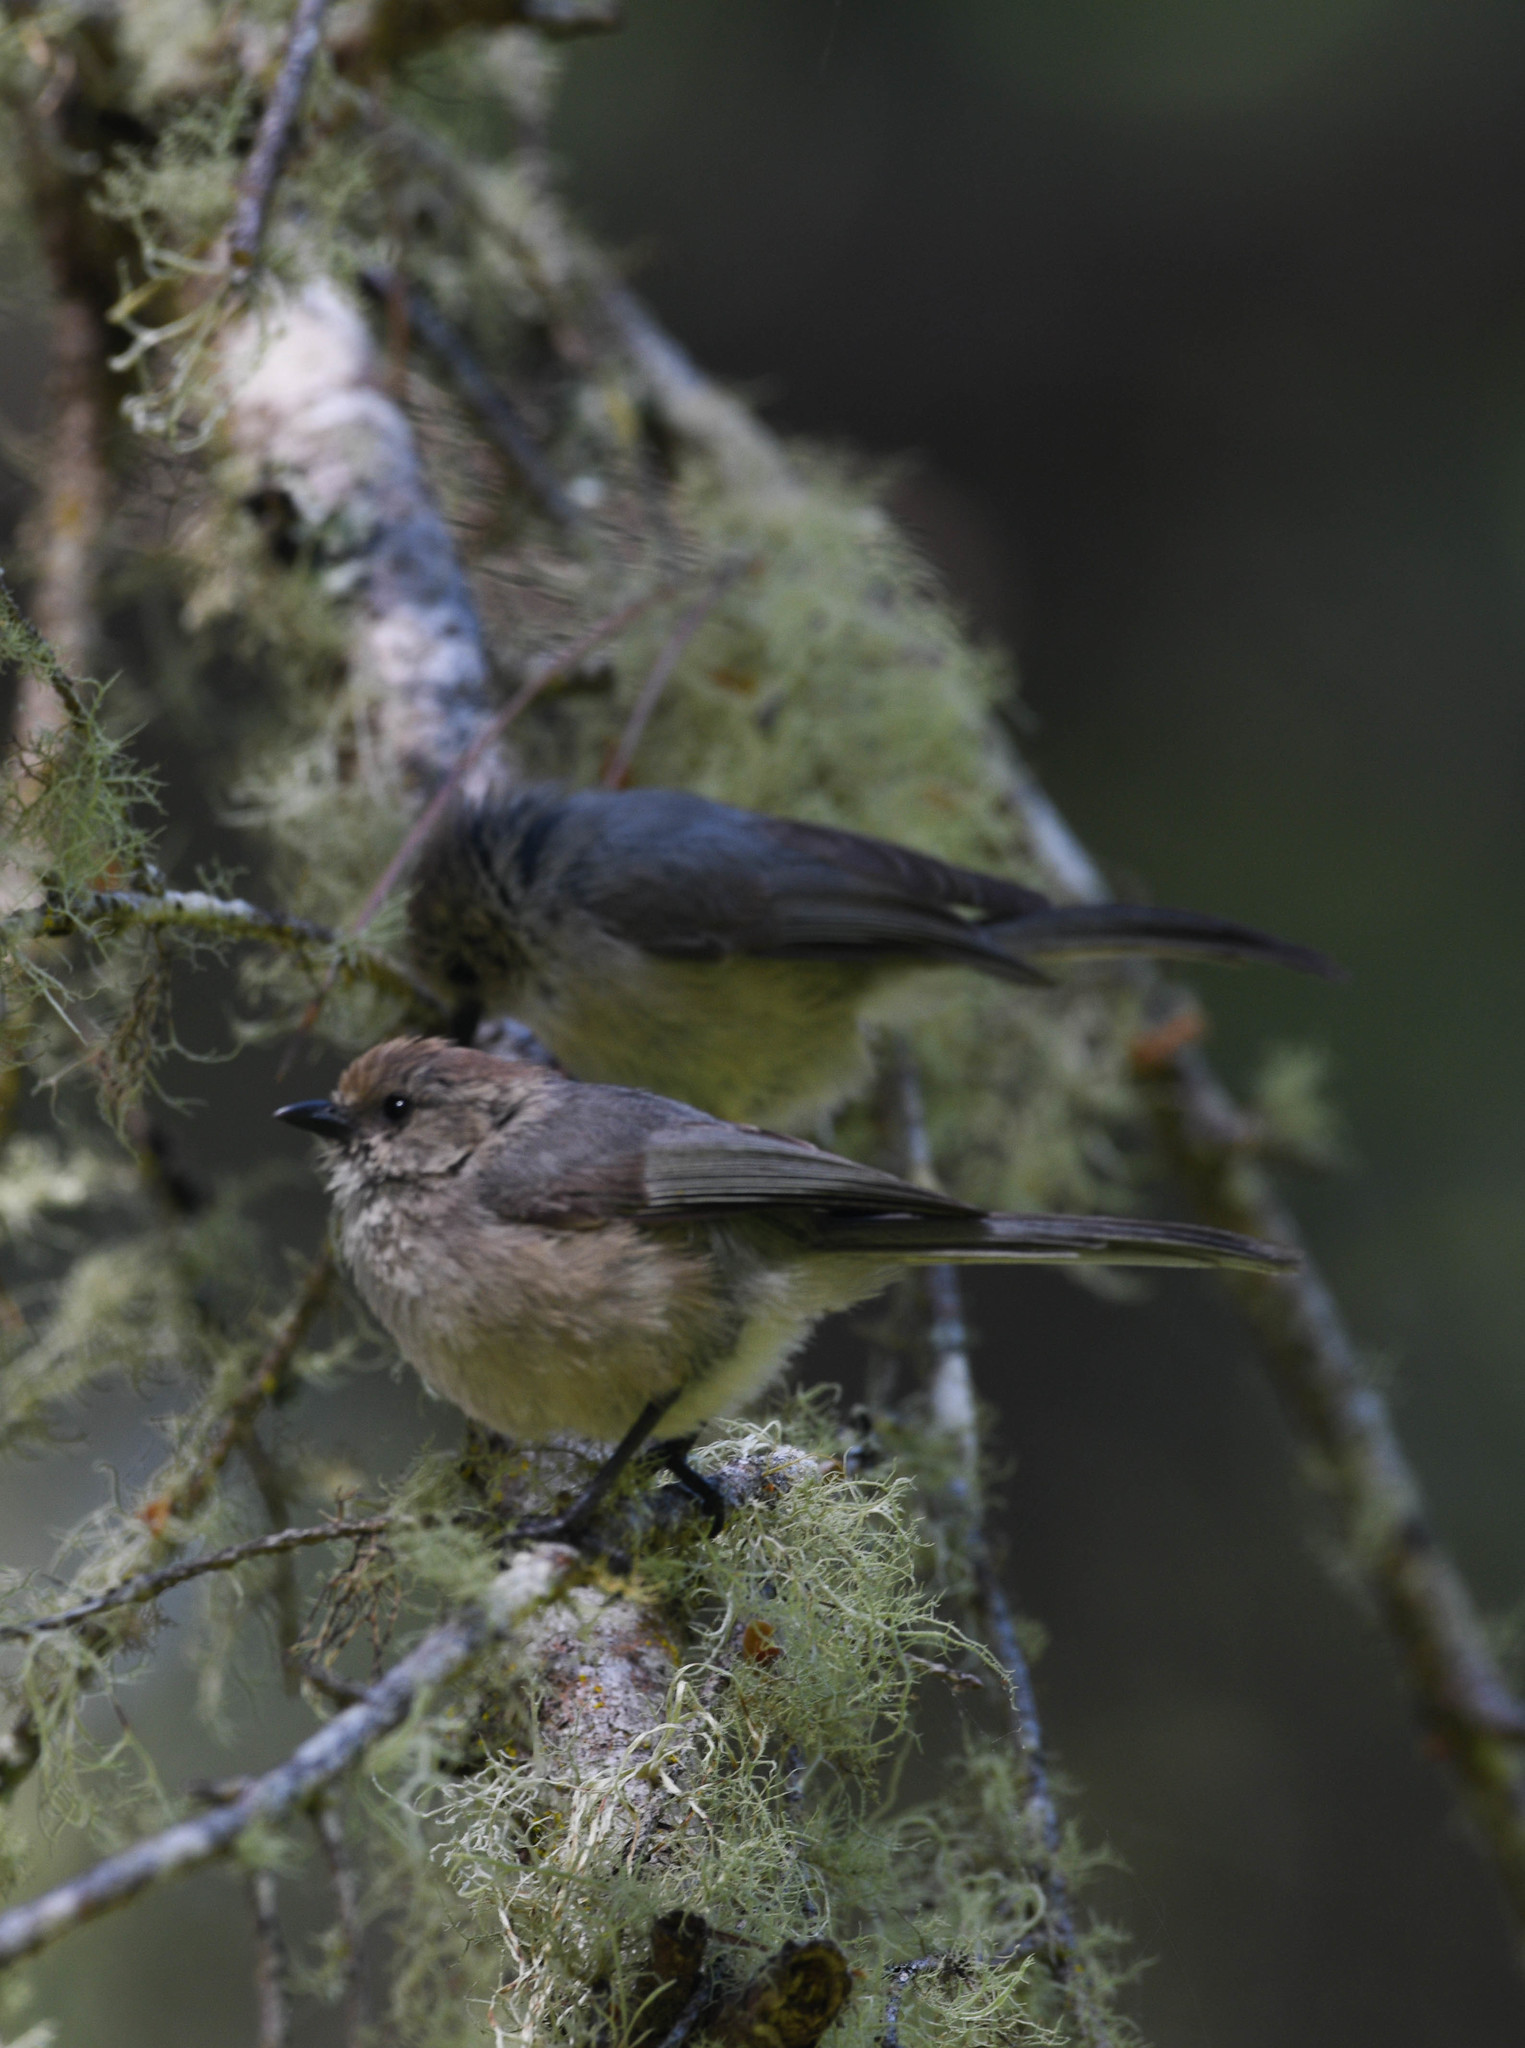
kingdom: Animalia
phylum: Chordata
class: Aves
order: Passeriformes
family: Aegithalidae
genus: Psaltriparus
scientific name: Psaltriparus minimus
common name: American bushtit
